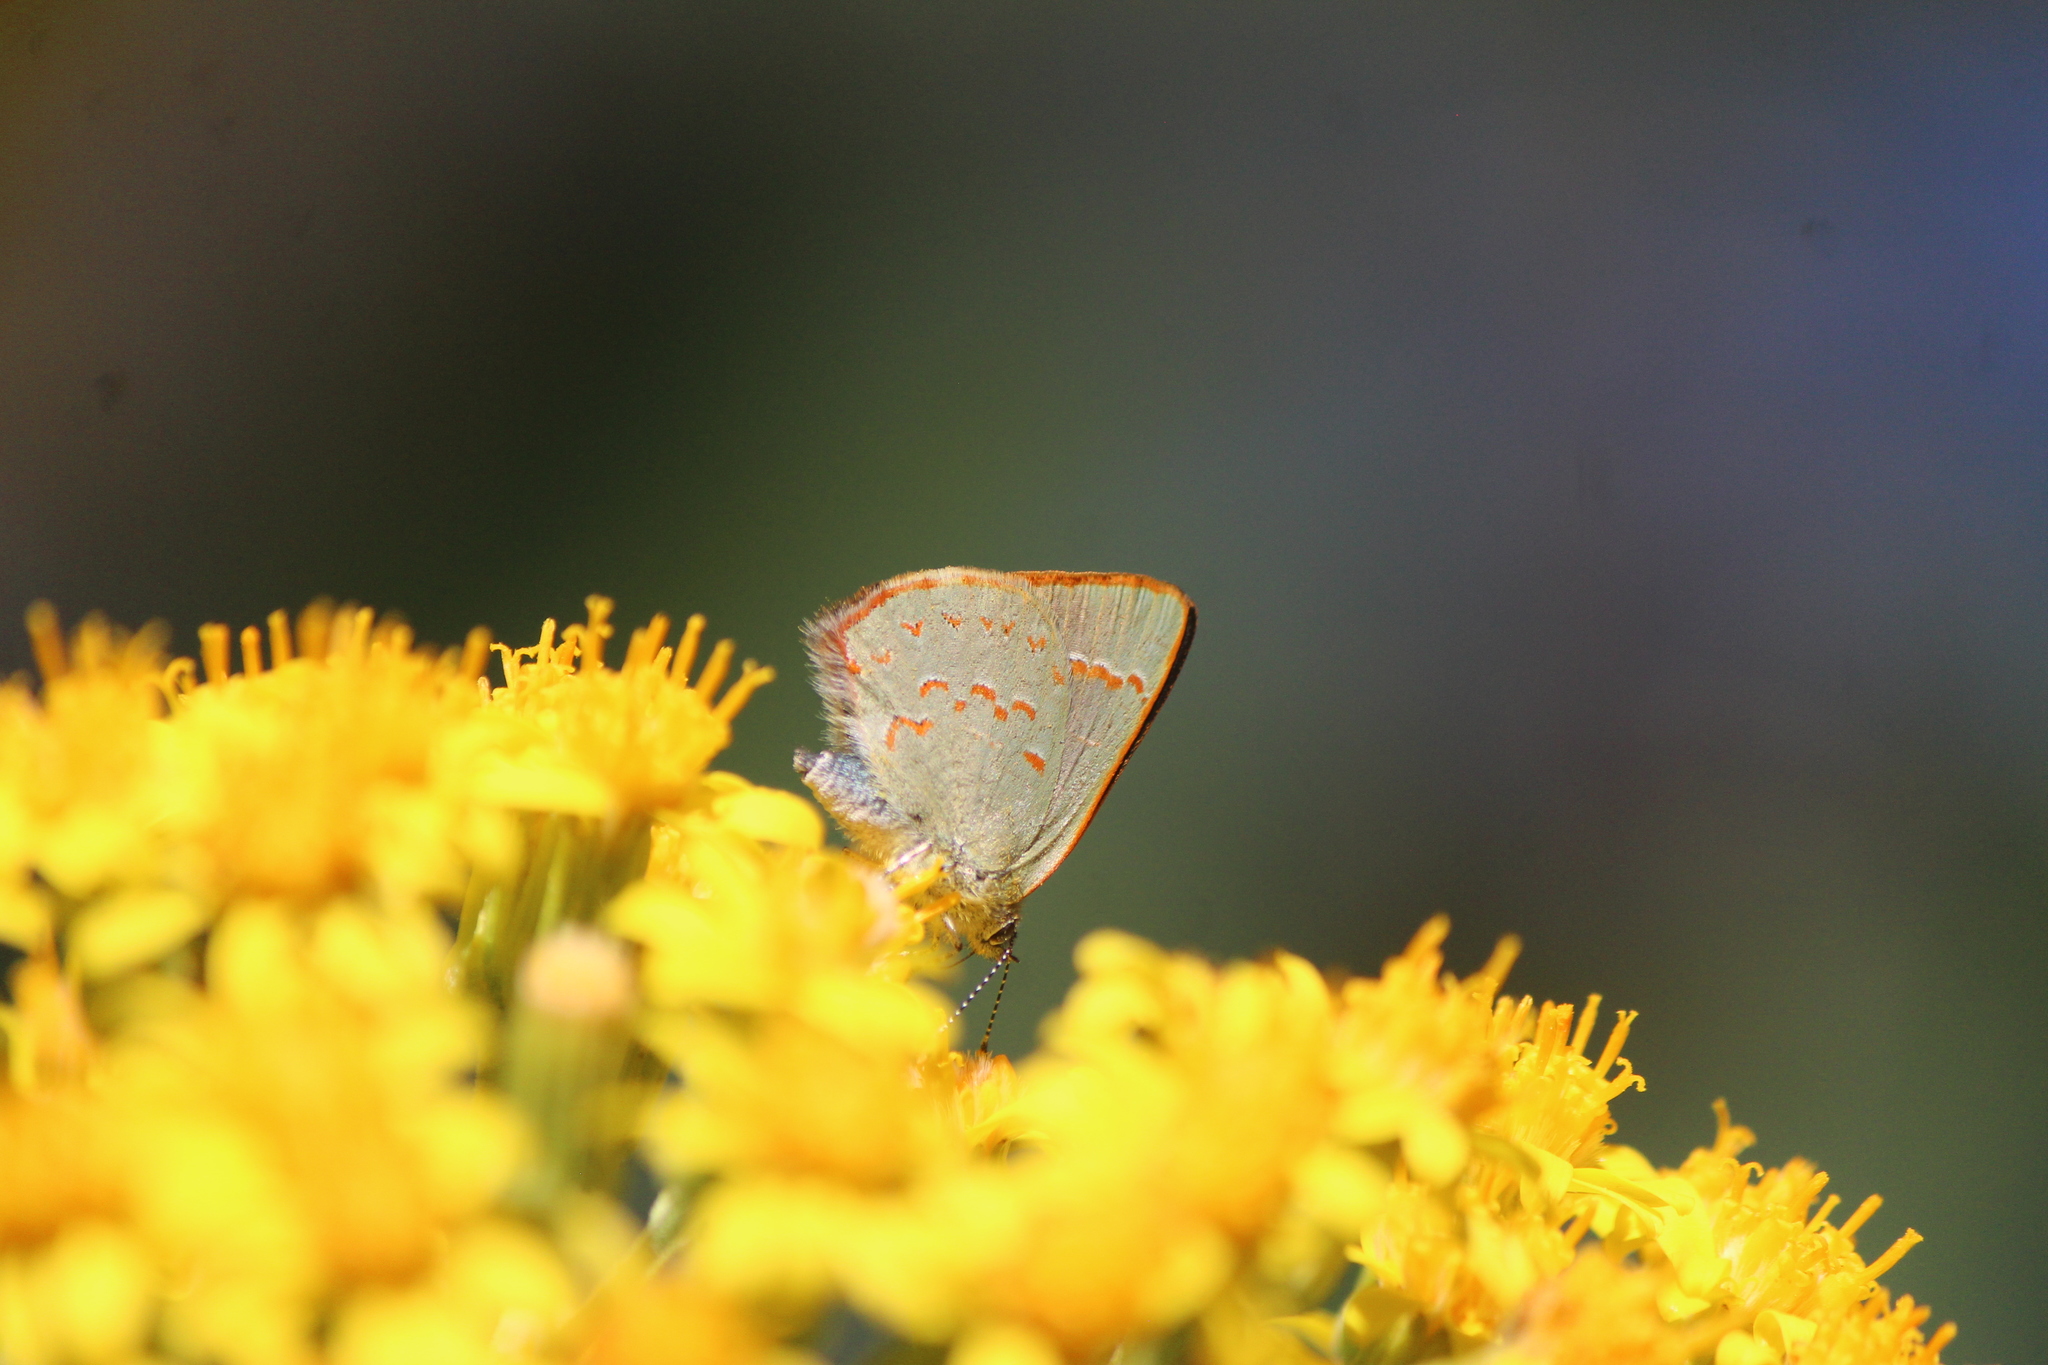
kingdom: Animalia
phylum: Arthropoda
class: Insecta
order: Lepidoptera
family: Lycaenidae
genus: Erora
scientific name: Erora quaderna
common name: Arizona hairstreak
